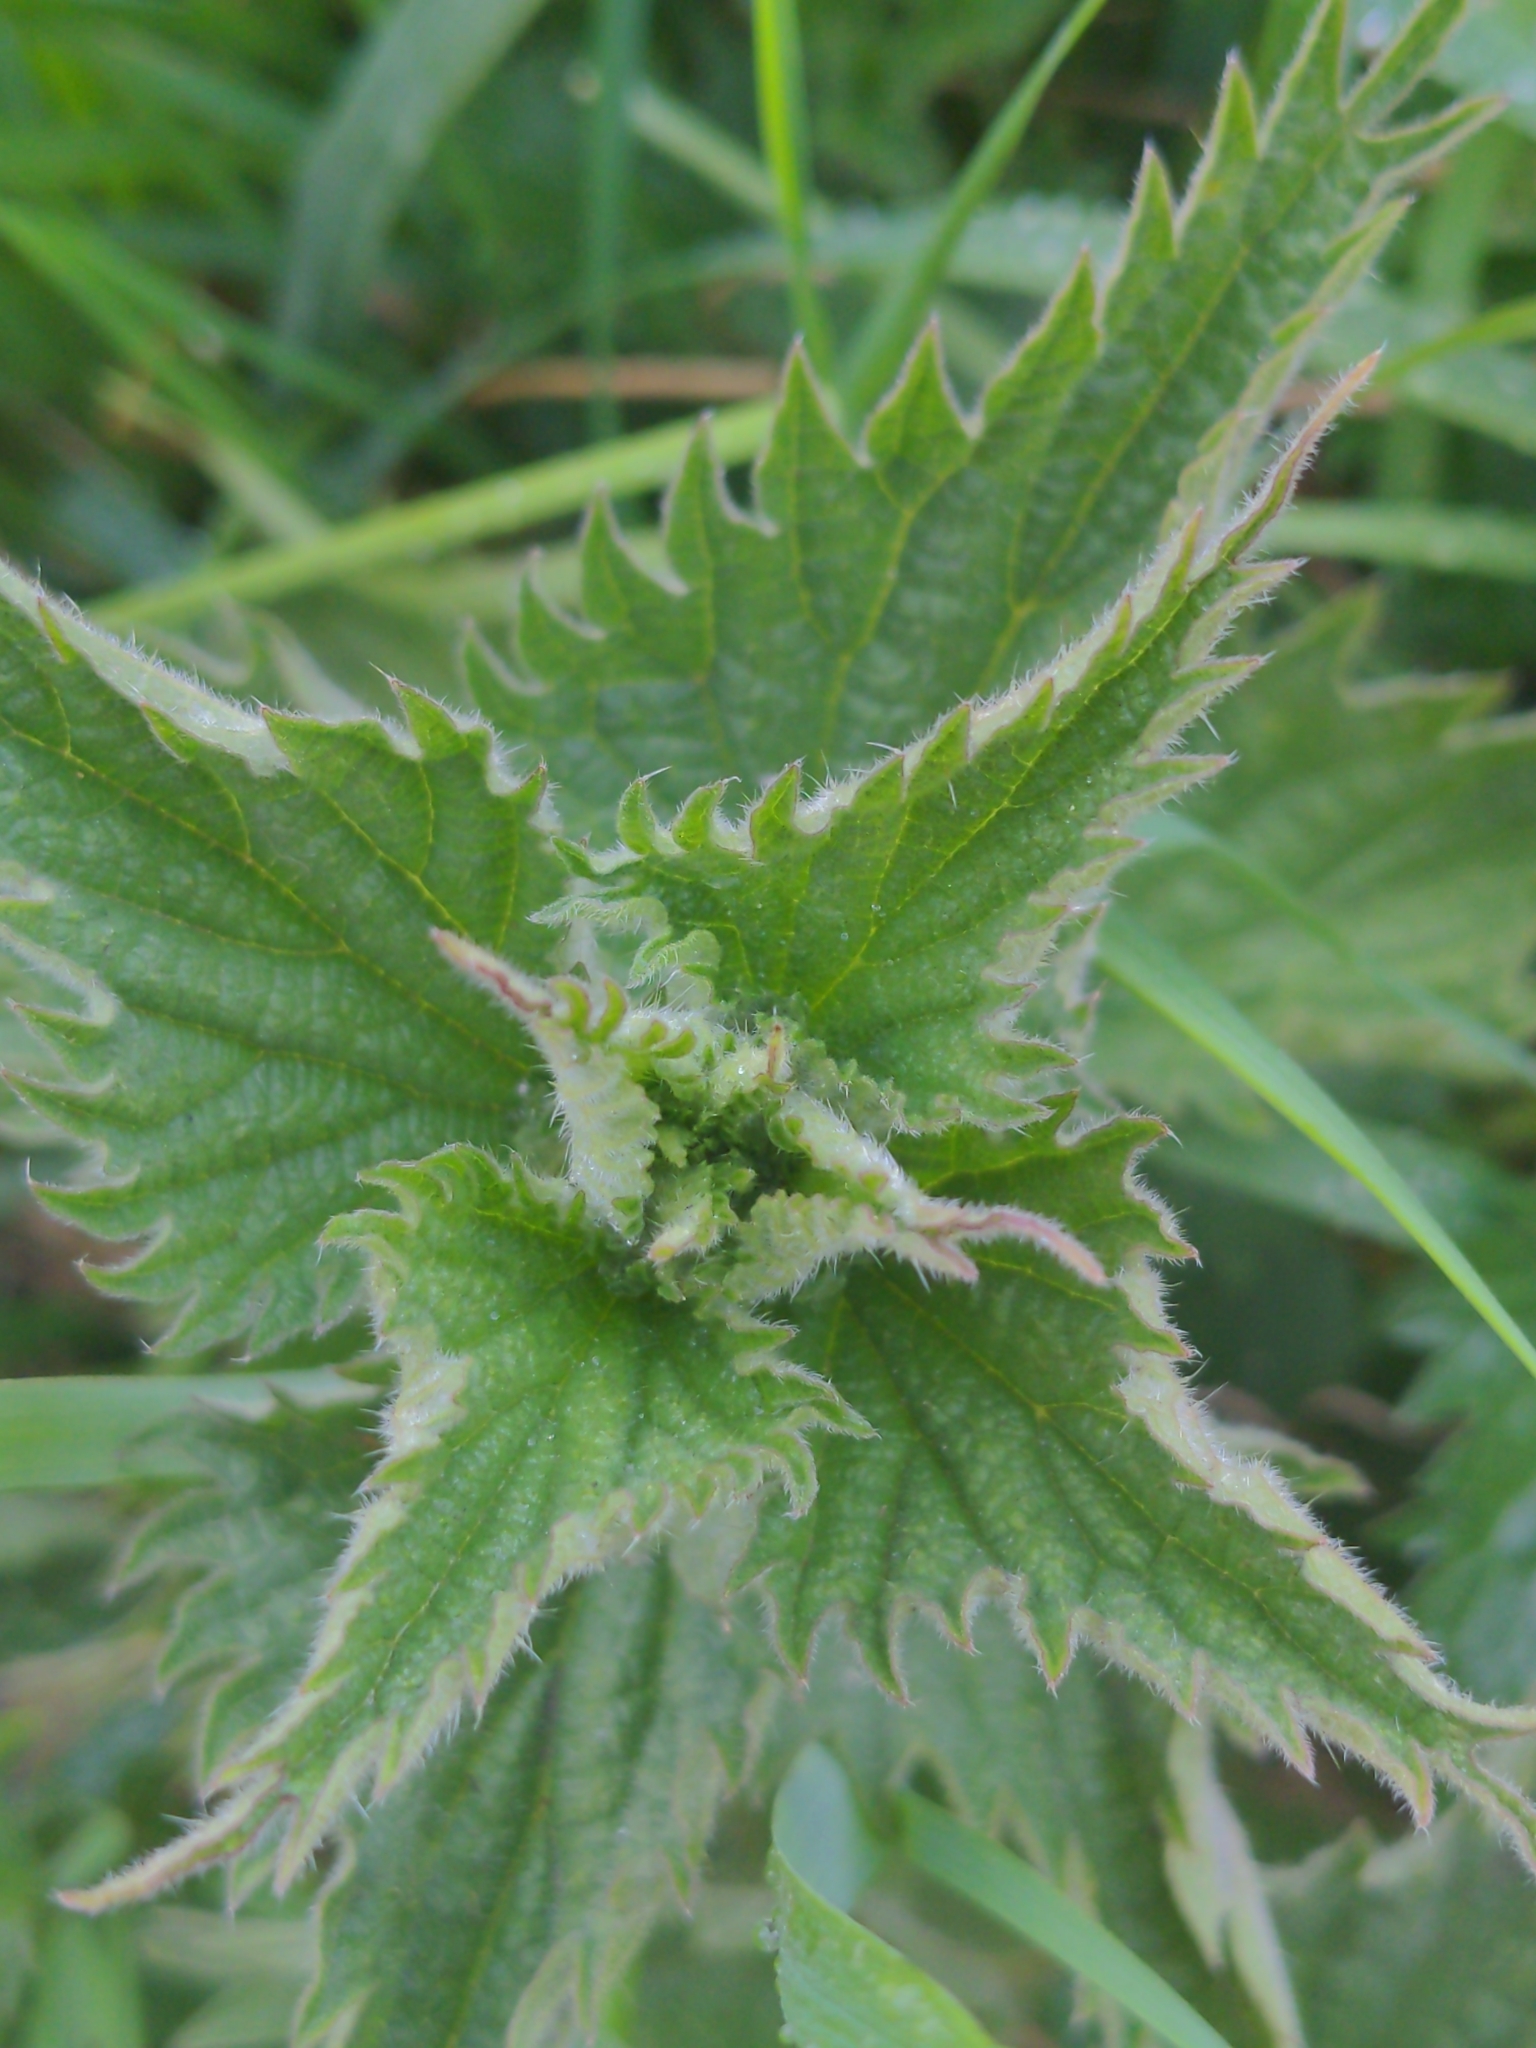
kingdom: Plantae
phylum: Tracheophyta
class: Magnoliopsida
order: Rosales
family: Urticaceae
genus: Urtica
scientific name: Urtica dioica
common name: Common nettle
